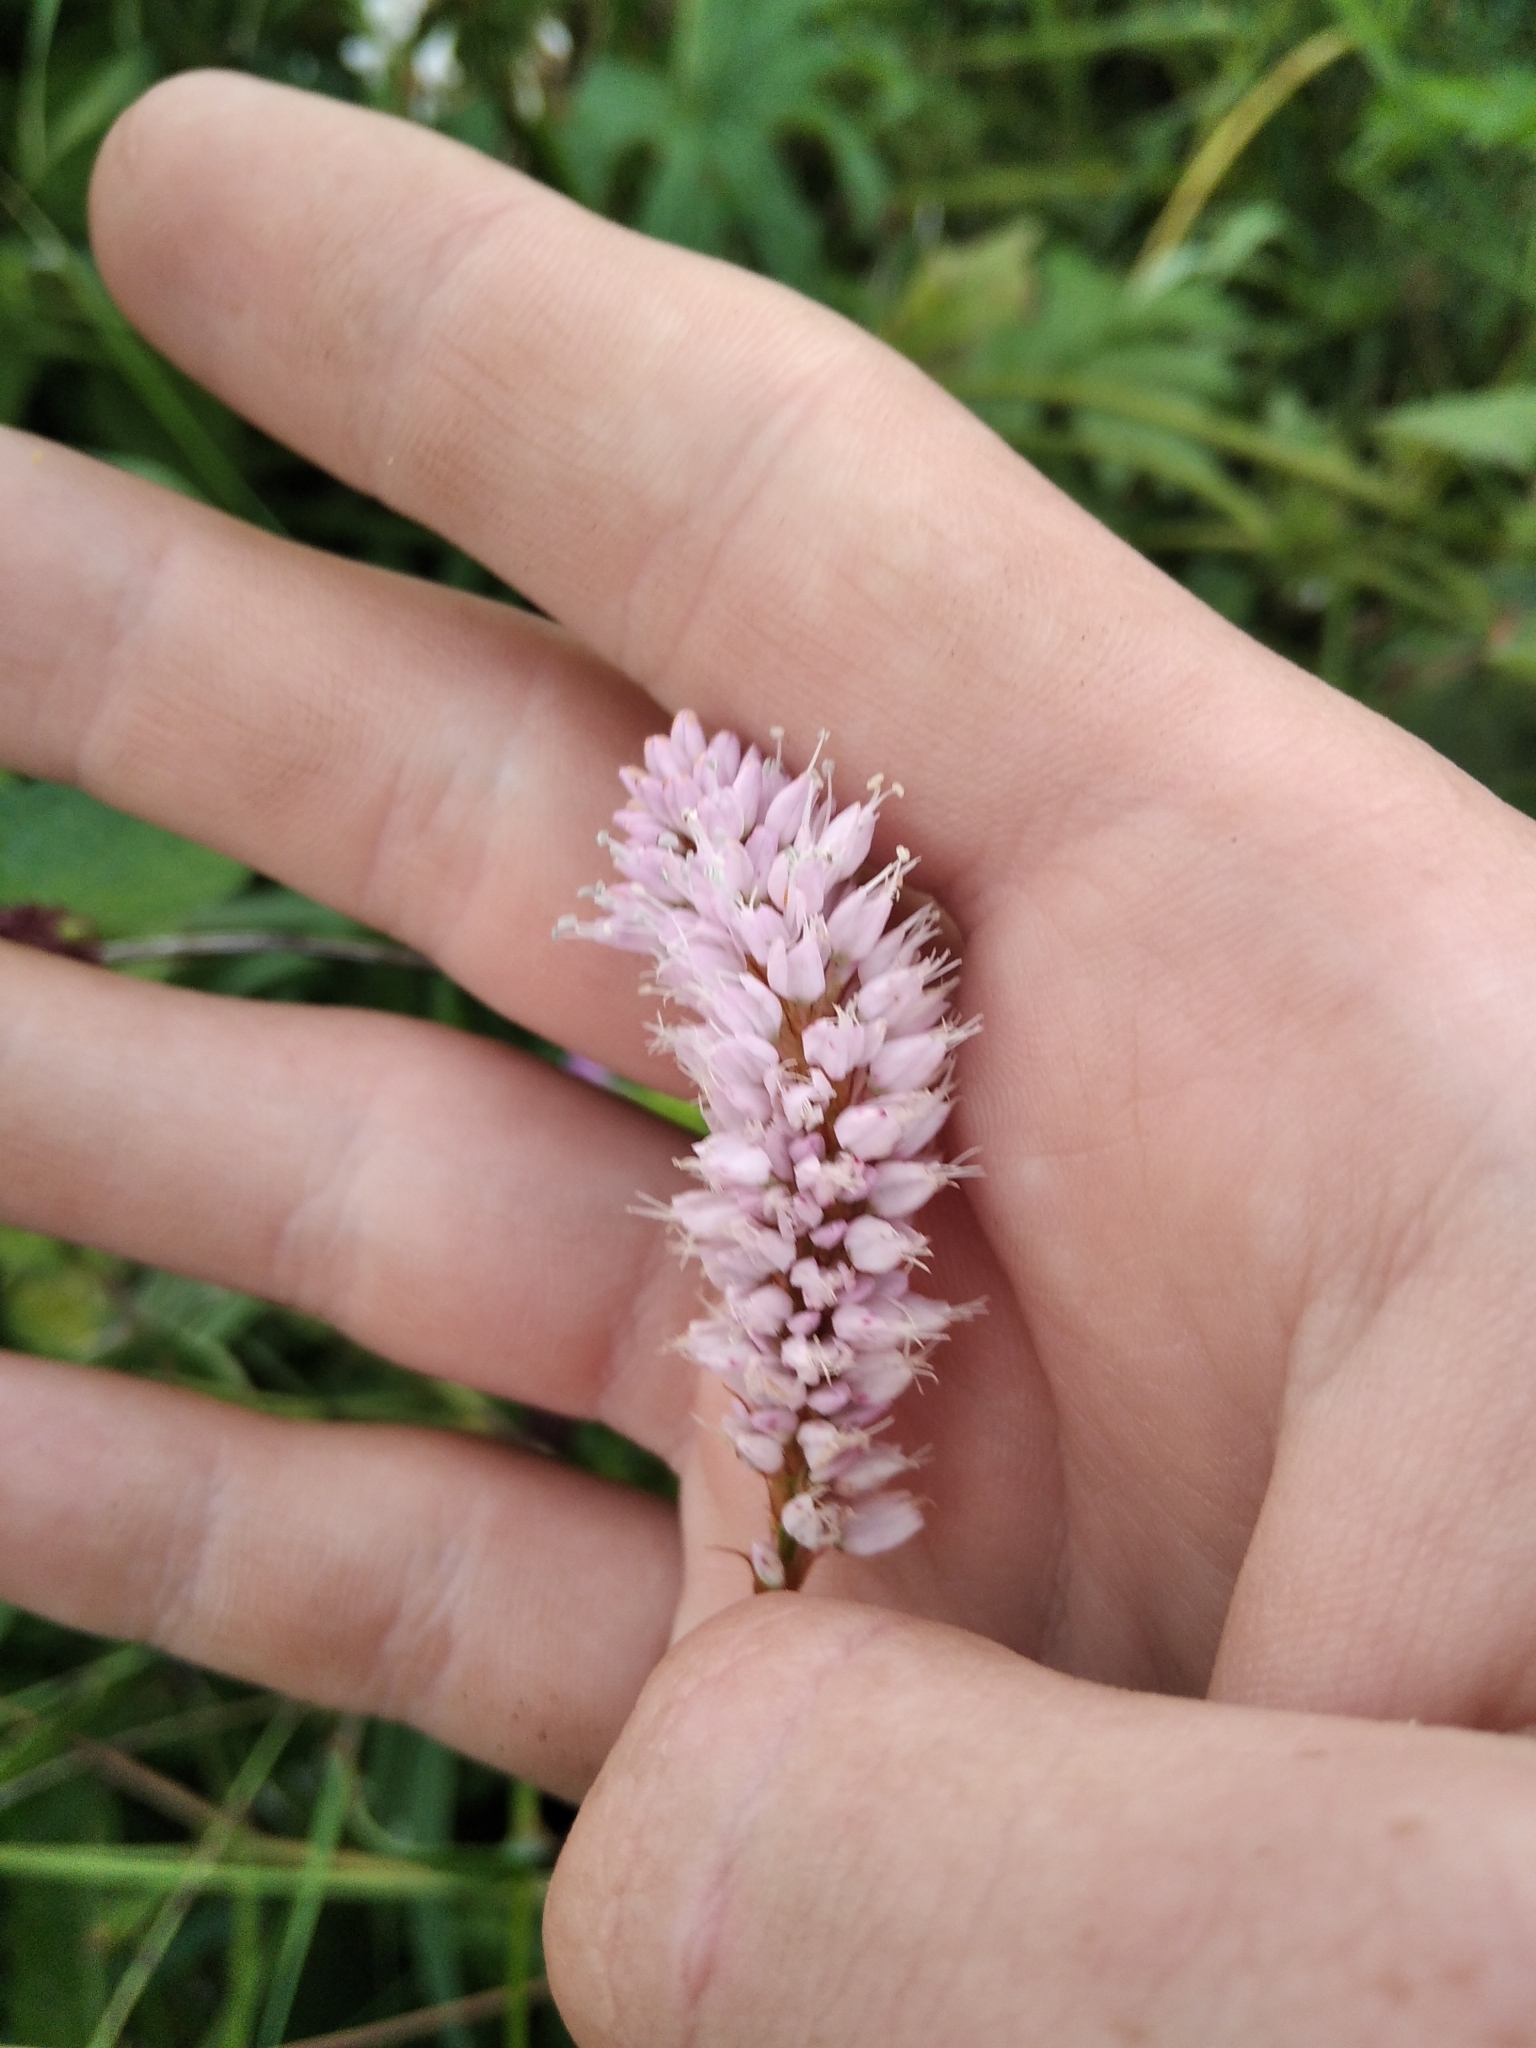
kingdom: Plantae
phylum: Tracheophyta
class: Magnoliopsida
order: Caryophyllales
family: Polygonaceae
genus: Bistorta
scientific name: Bistorta officinalis
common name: Common bistort
